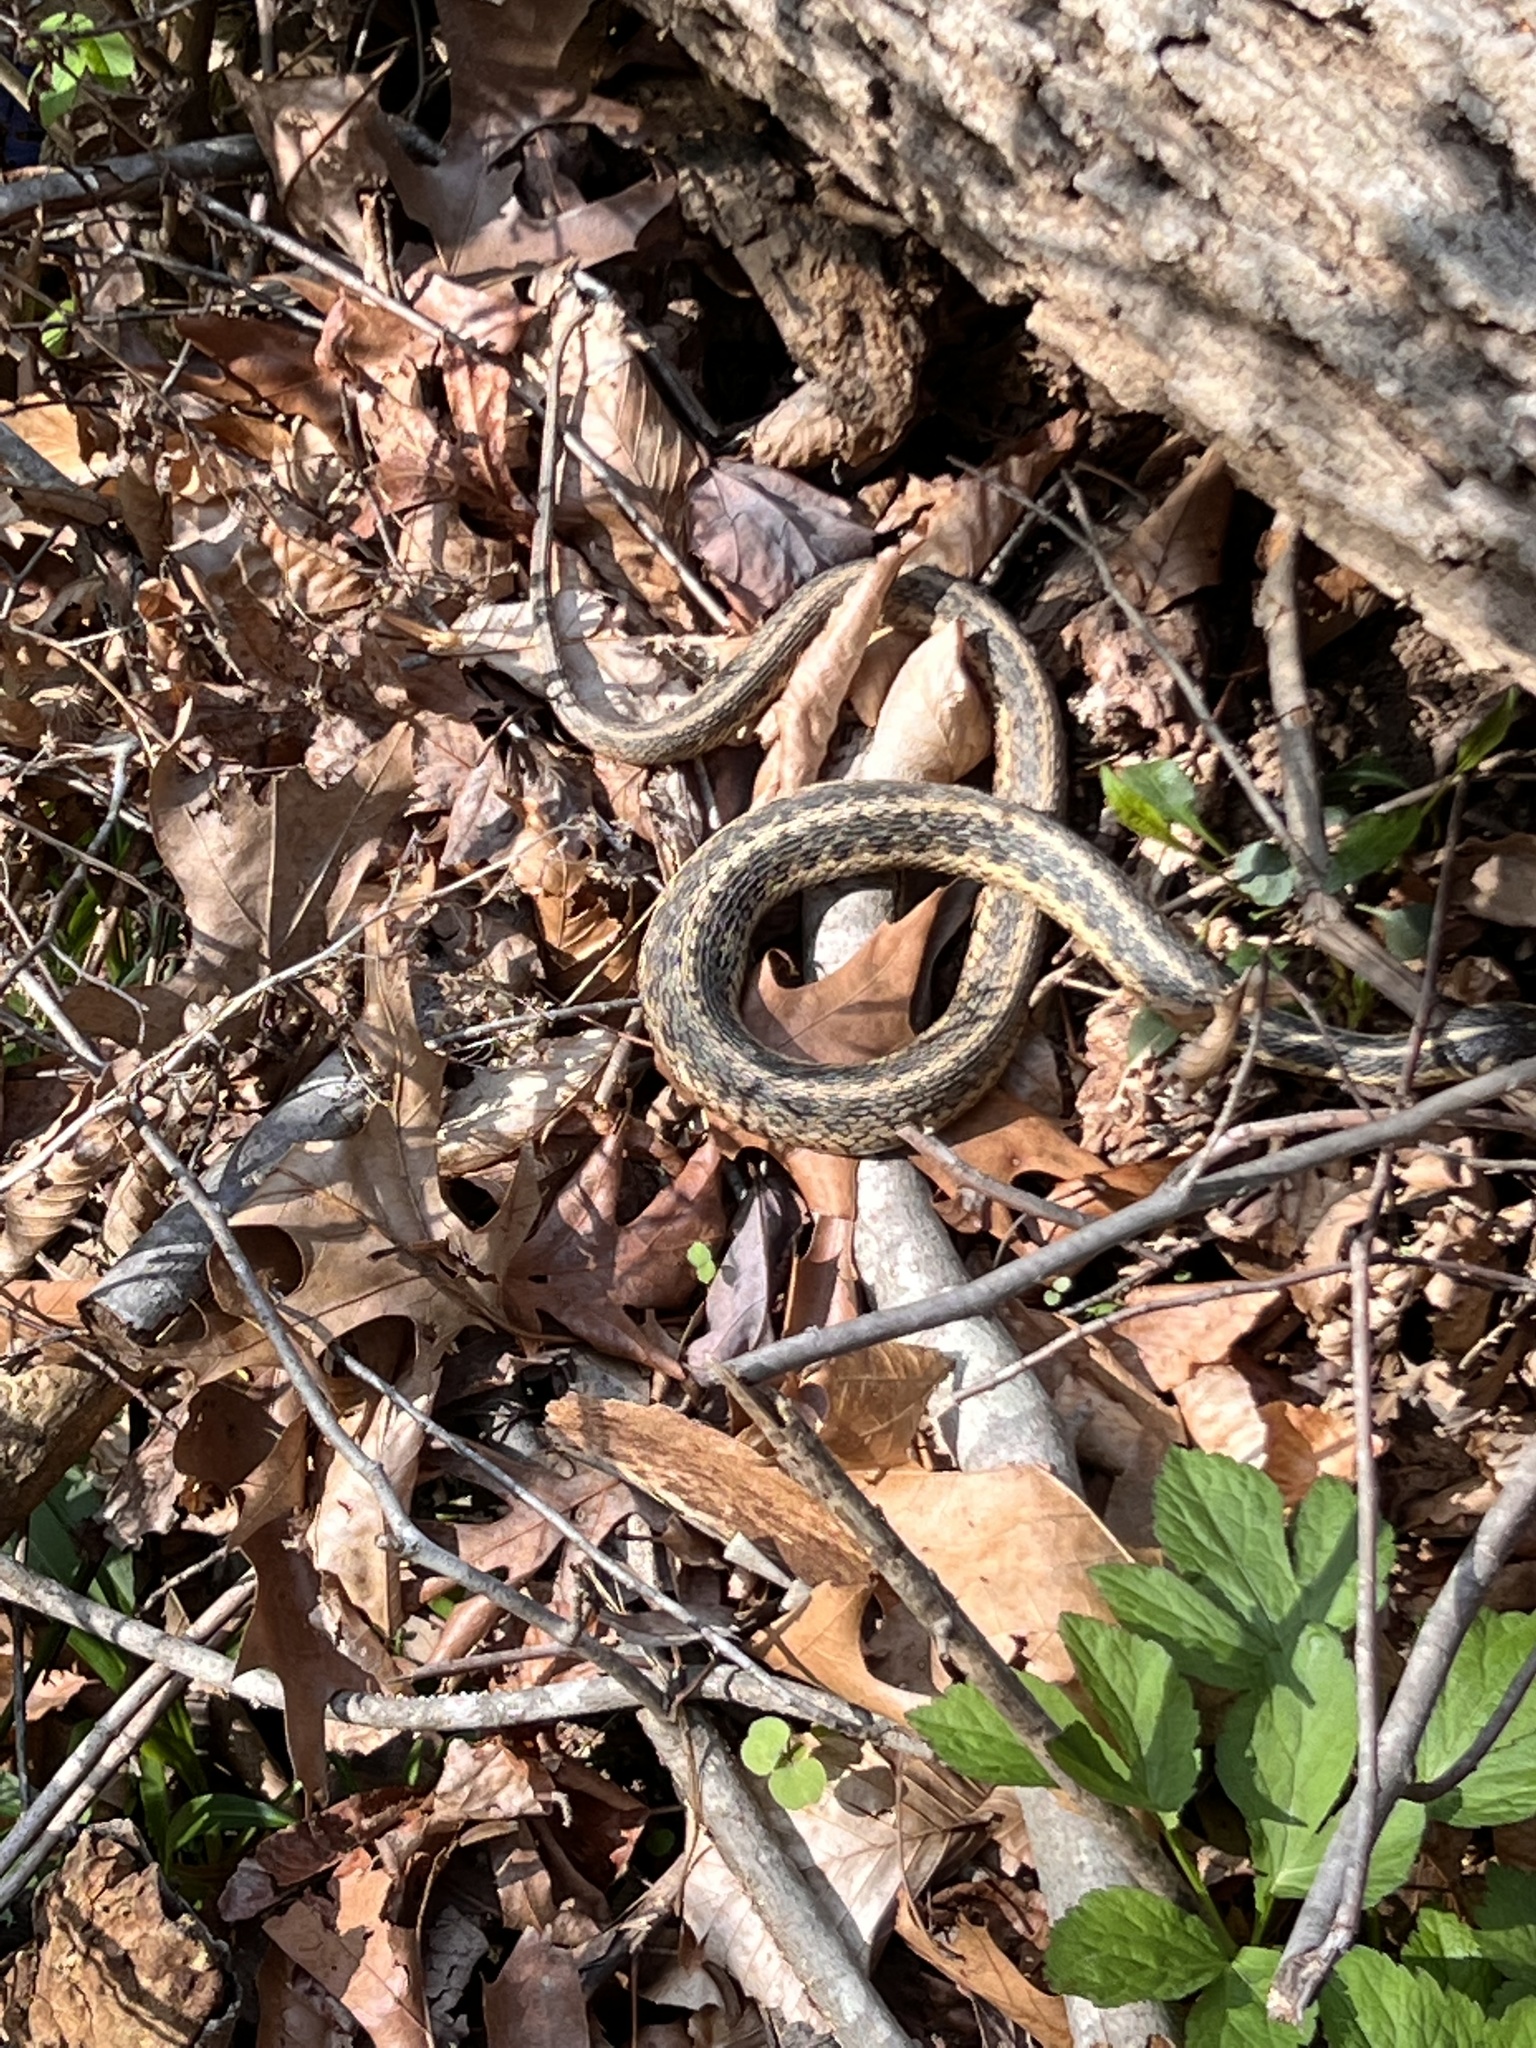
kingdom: Animalia
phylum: Chordata
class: Squamata
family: Colubridae
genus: Thamnophis
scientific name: Thamnophis sirtalis
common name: Common garter snake
